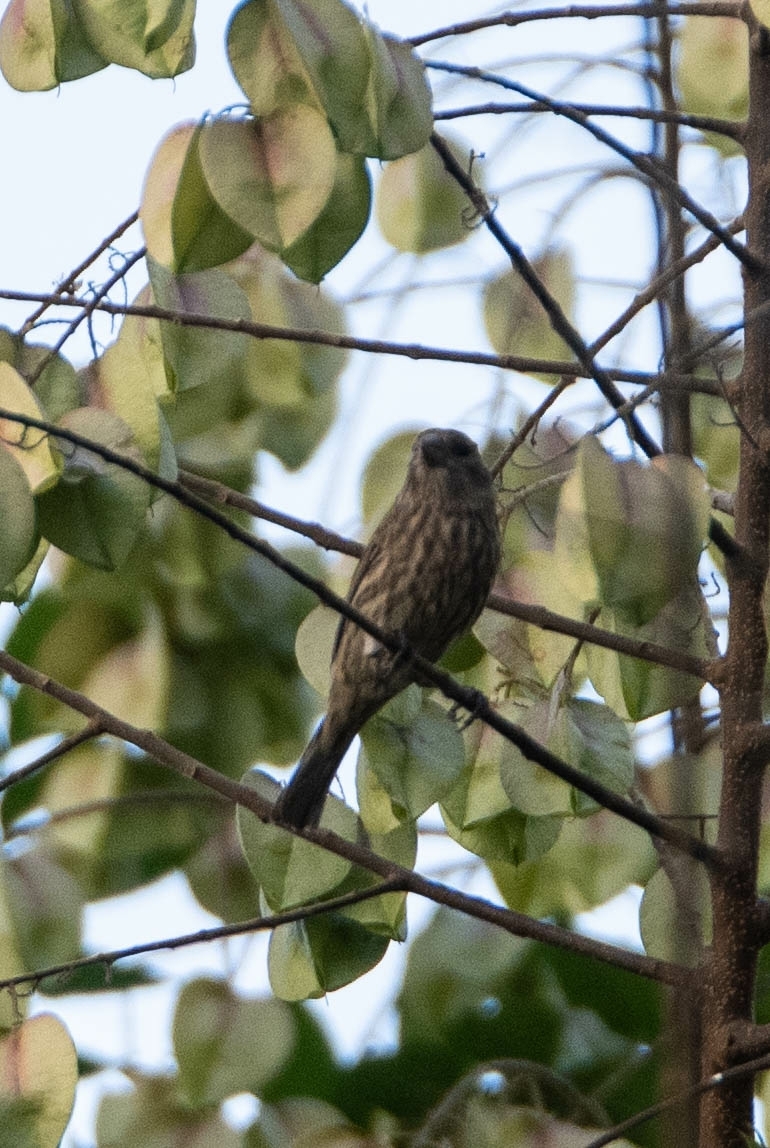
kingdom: Animalia
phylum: Chordata
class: Aves
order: Passeriformes
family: Fringillidae
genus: Haemorhous
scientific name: Haemorhous mexicanus
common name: House finch
